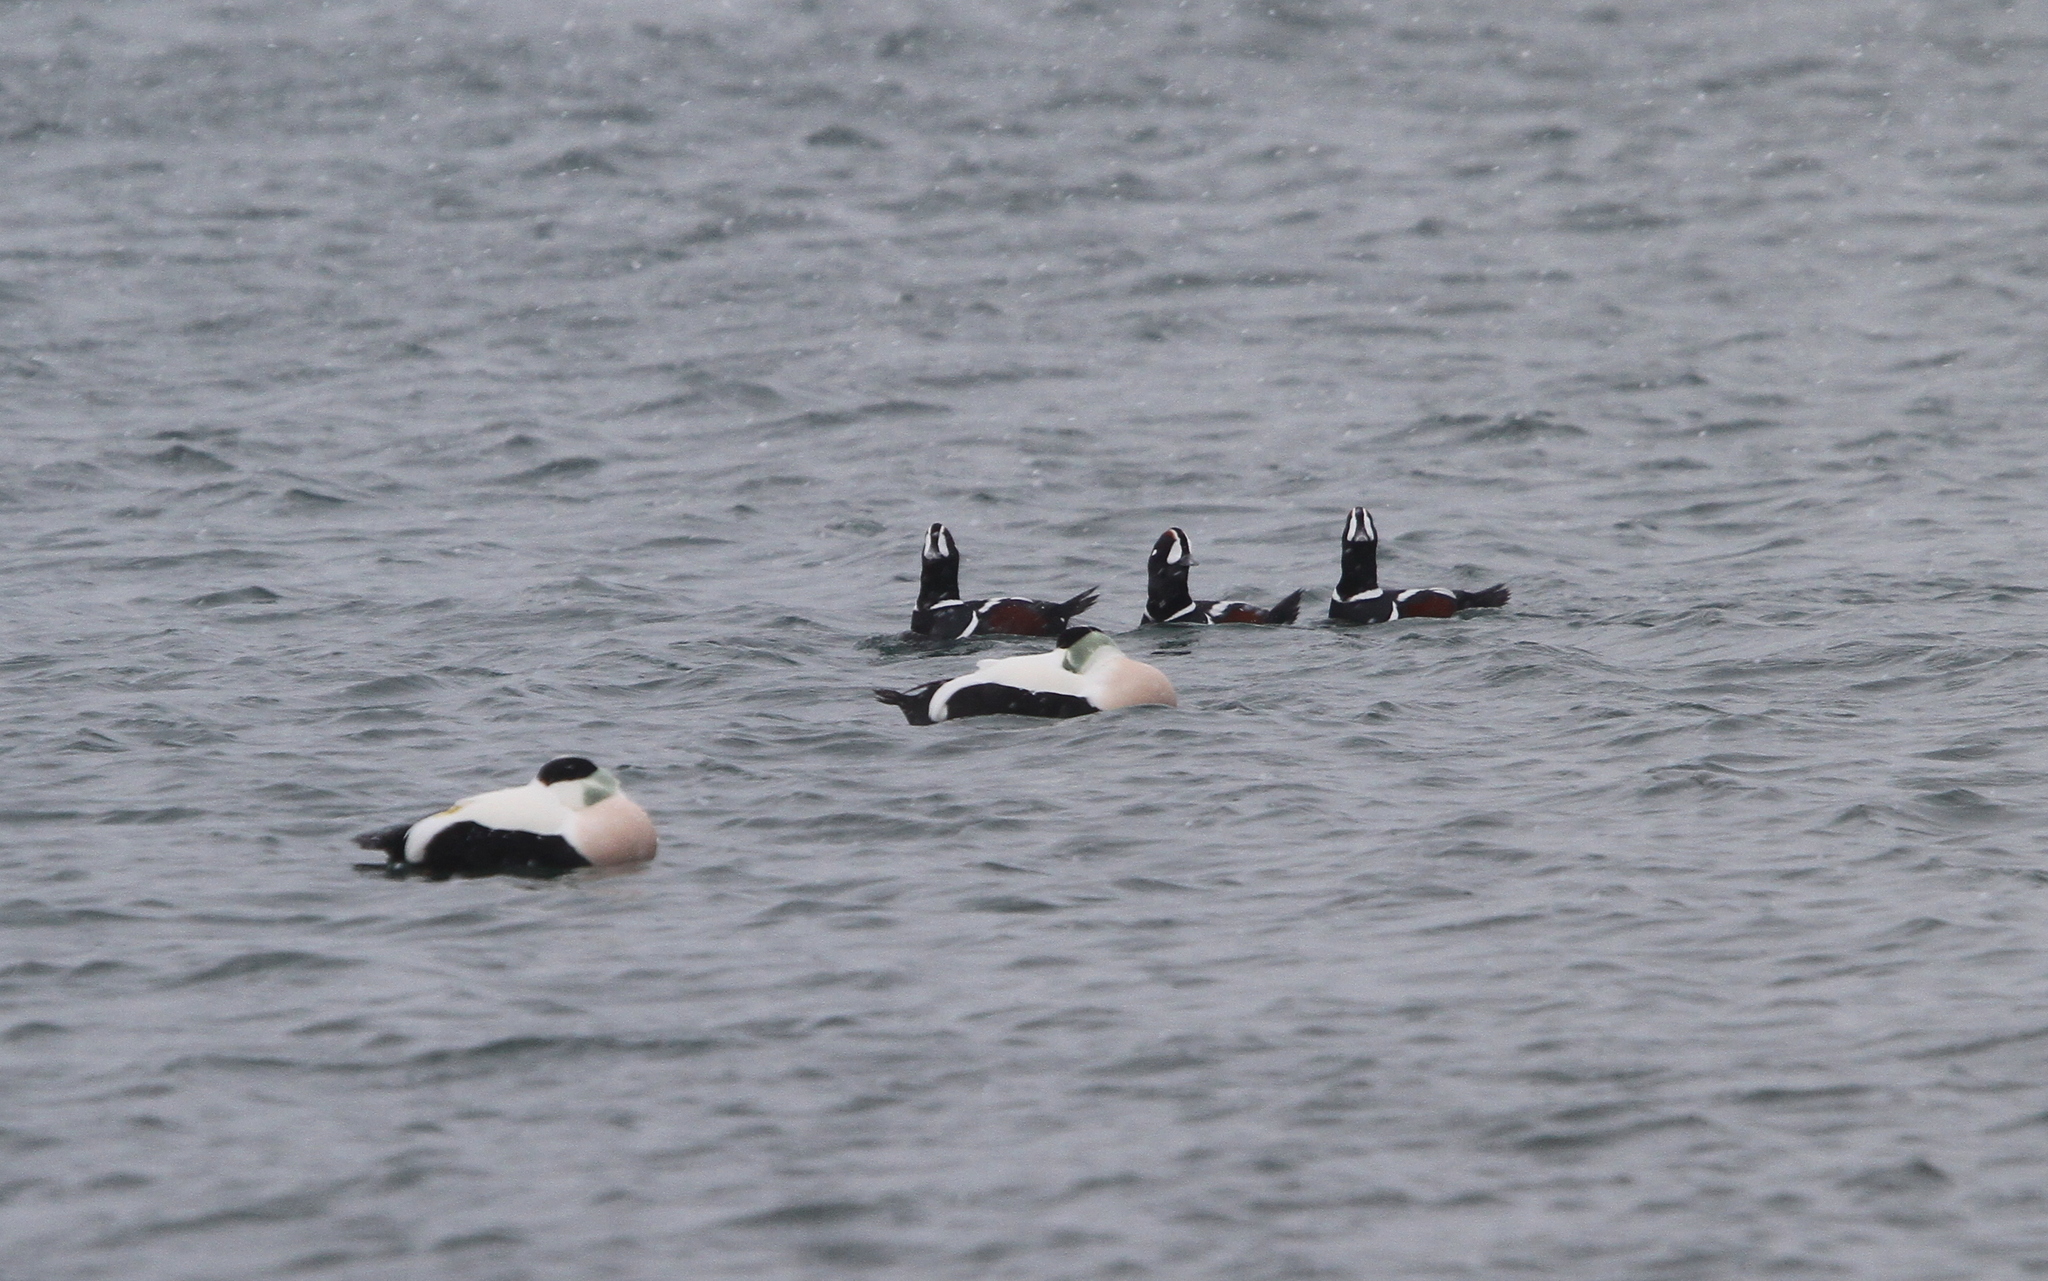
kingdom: Animalia
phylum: Chordata
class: Aves
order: Anseriformes
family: Anatidae
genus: Histrionicus
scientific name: Histrionicus histrionicus
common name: Harlequin duck
